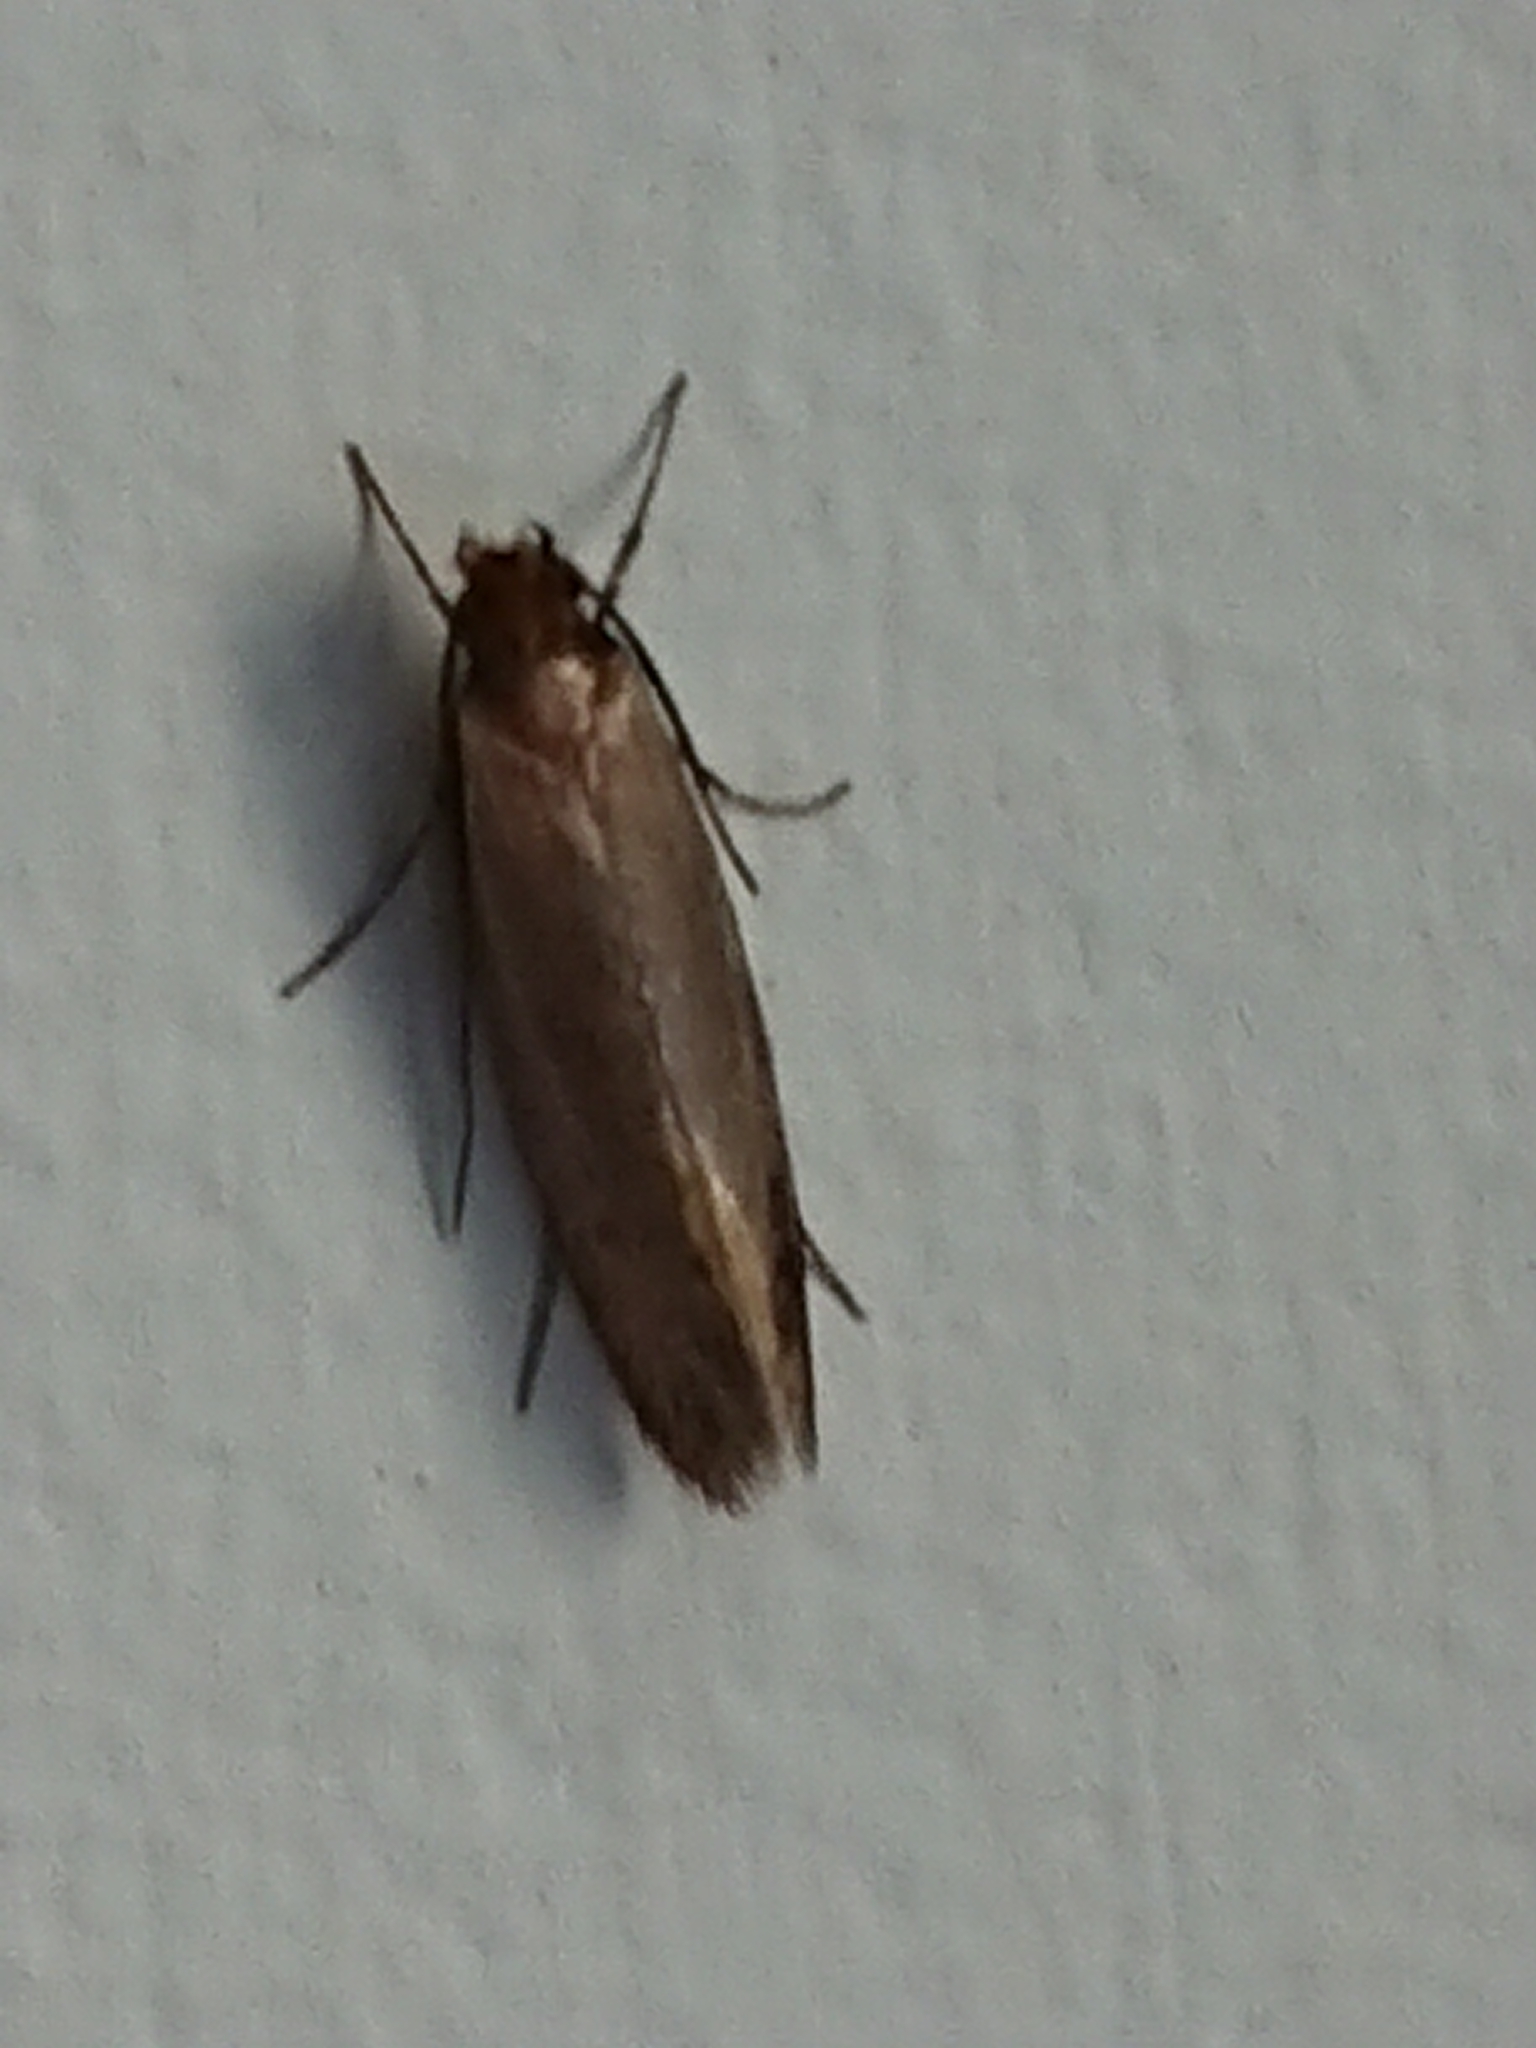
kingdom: Animalia
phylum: Arthropoda
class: Insecta
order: Lepidoptera
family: Tineidae
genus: Tineola
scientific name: Tineola bisselliella
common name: Webbing clothes moth
